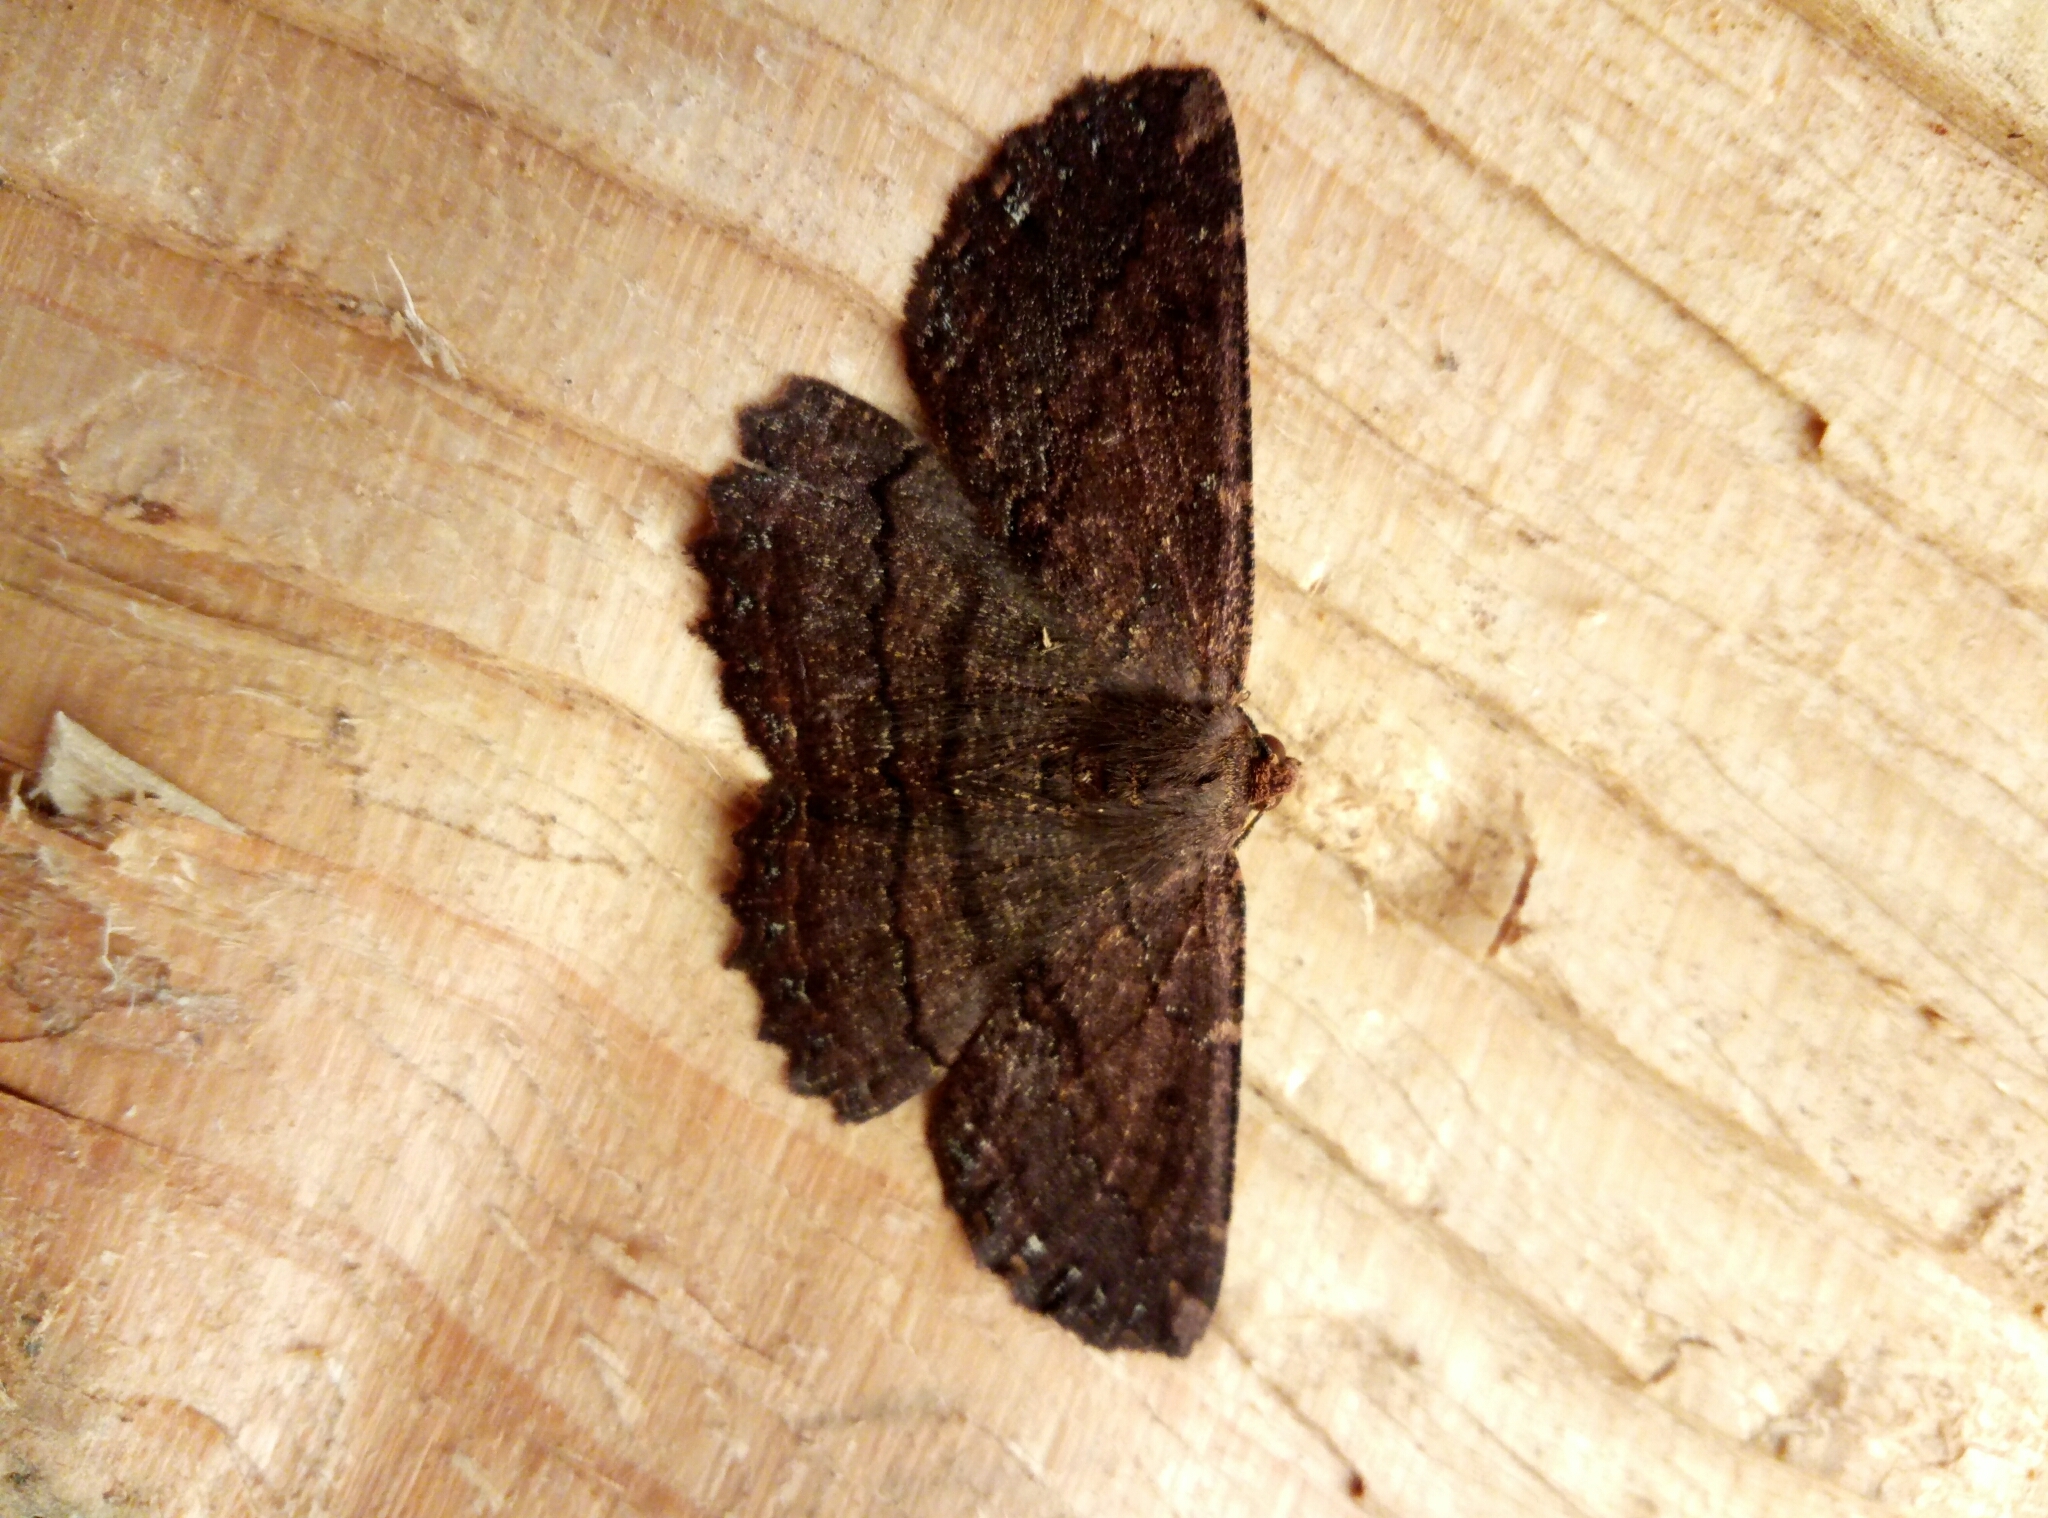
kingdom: Animalia
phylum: Arthropoda
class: Insecta
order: Lepidoptera
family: Geometridae
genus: Gellonia
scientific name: Gellonia dejectaria
